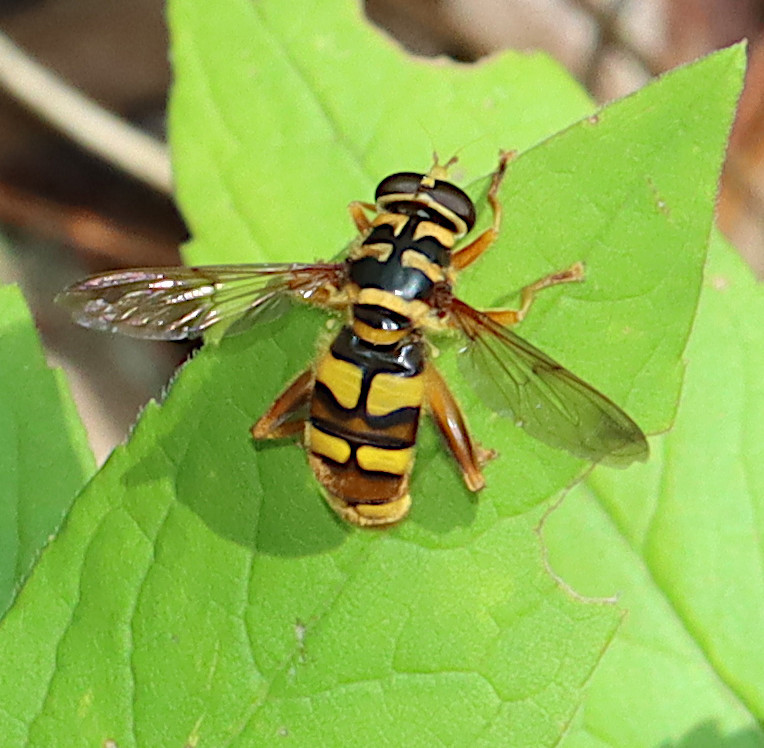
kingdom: Animalia
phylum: Arthropoda
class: Insecta
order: Diptera
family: Syrphidae
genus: Milesia
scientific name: Milesia virginiensis
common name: Virginia giant
